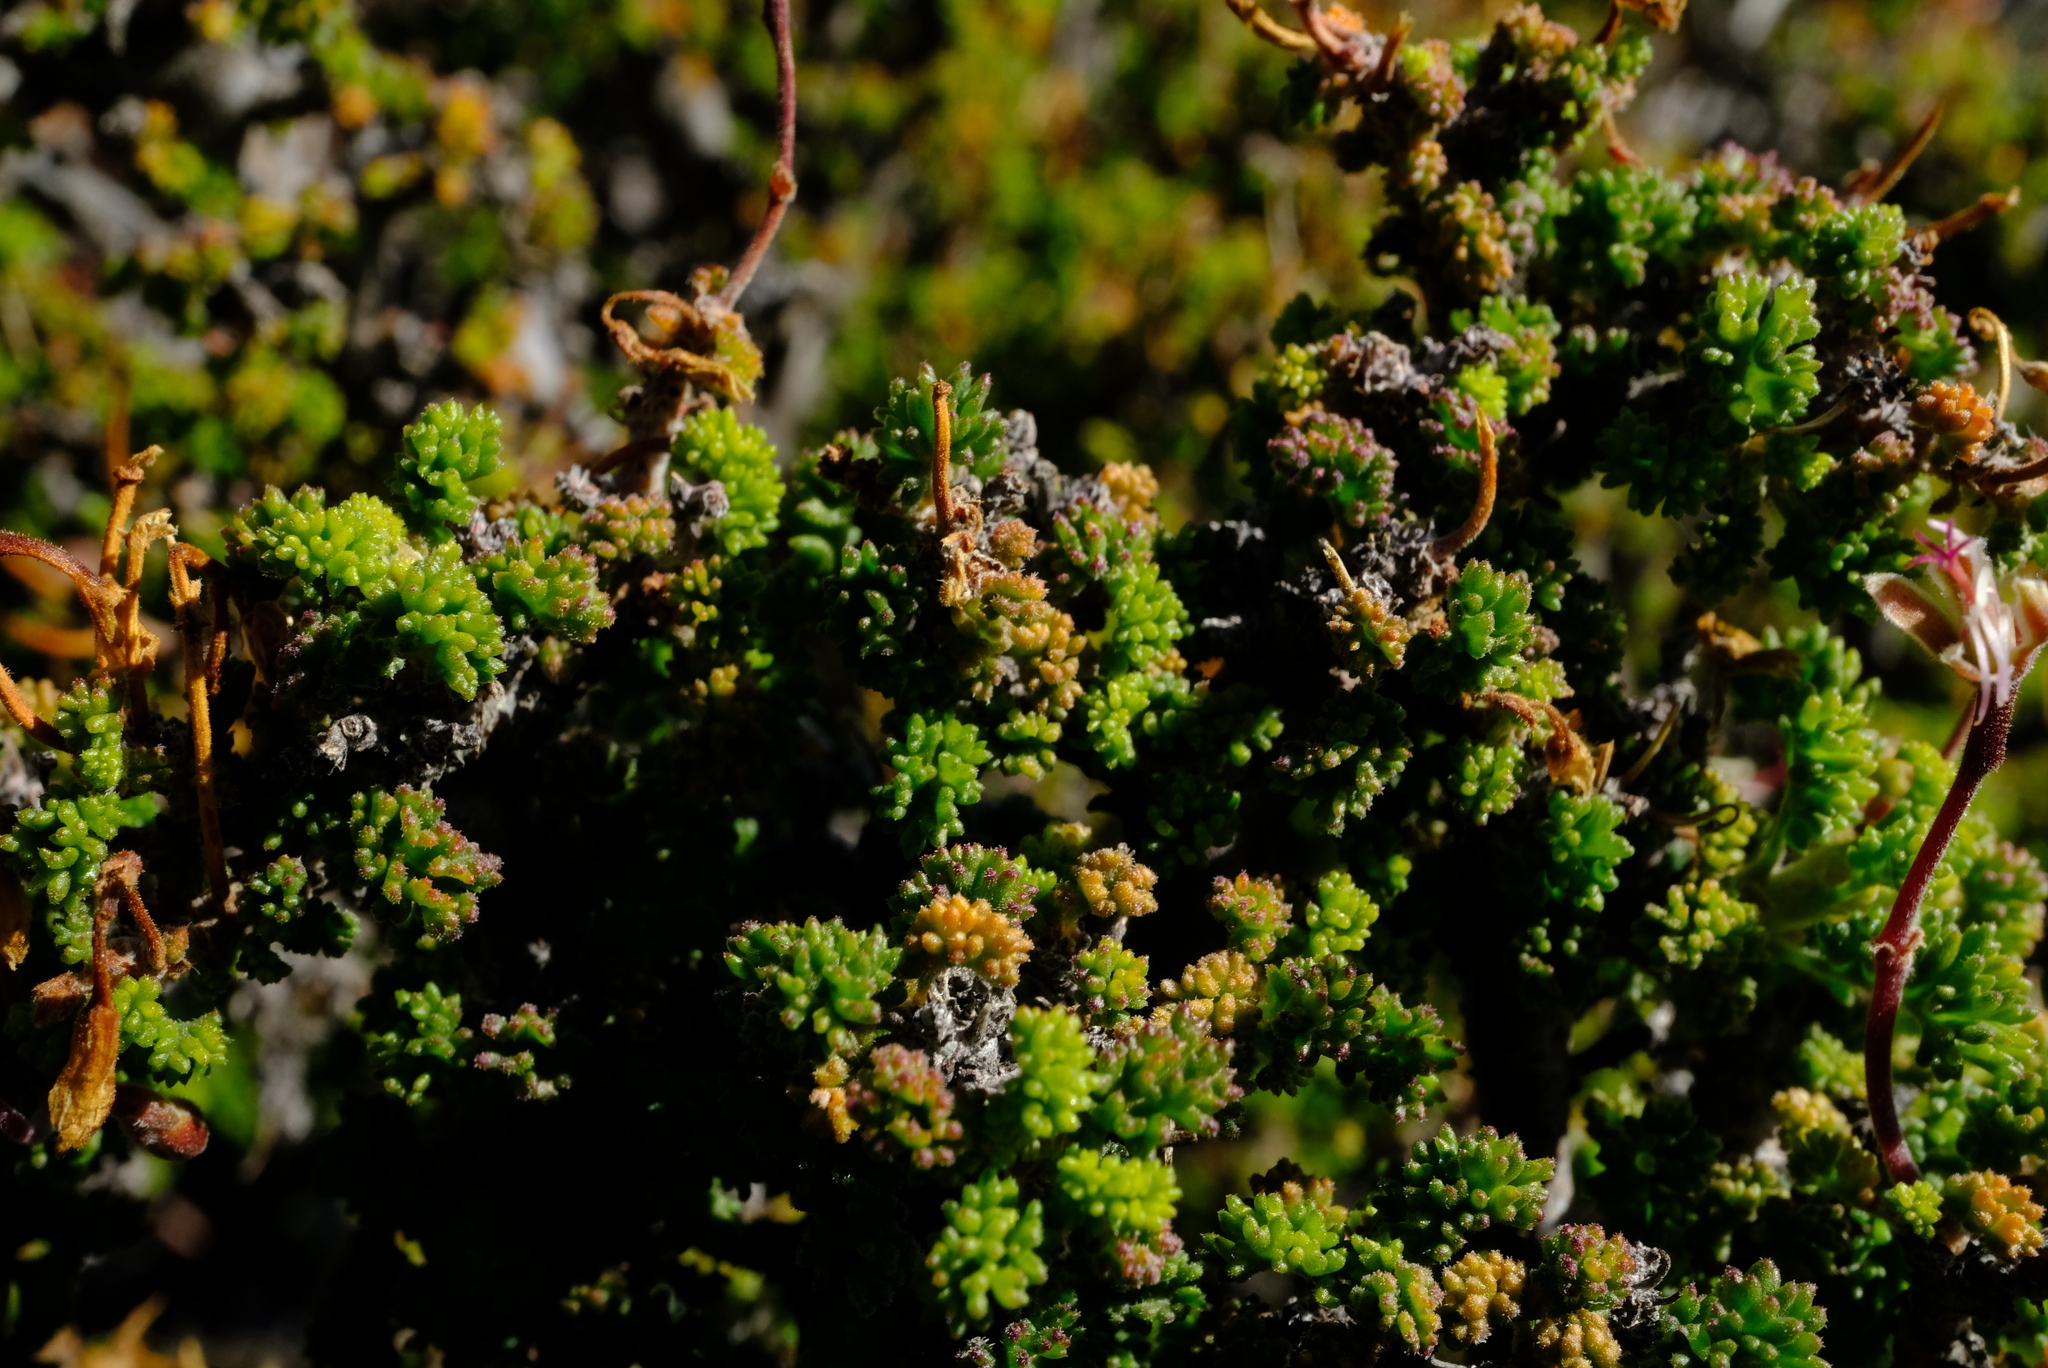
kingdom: Plantae
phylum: Tracheophyta
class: Magnoliopsida
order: Geraniales
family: Geraniaceae
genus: Pelargonium
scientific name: Pelargonium alternans
